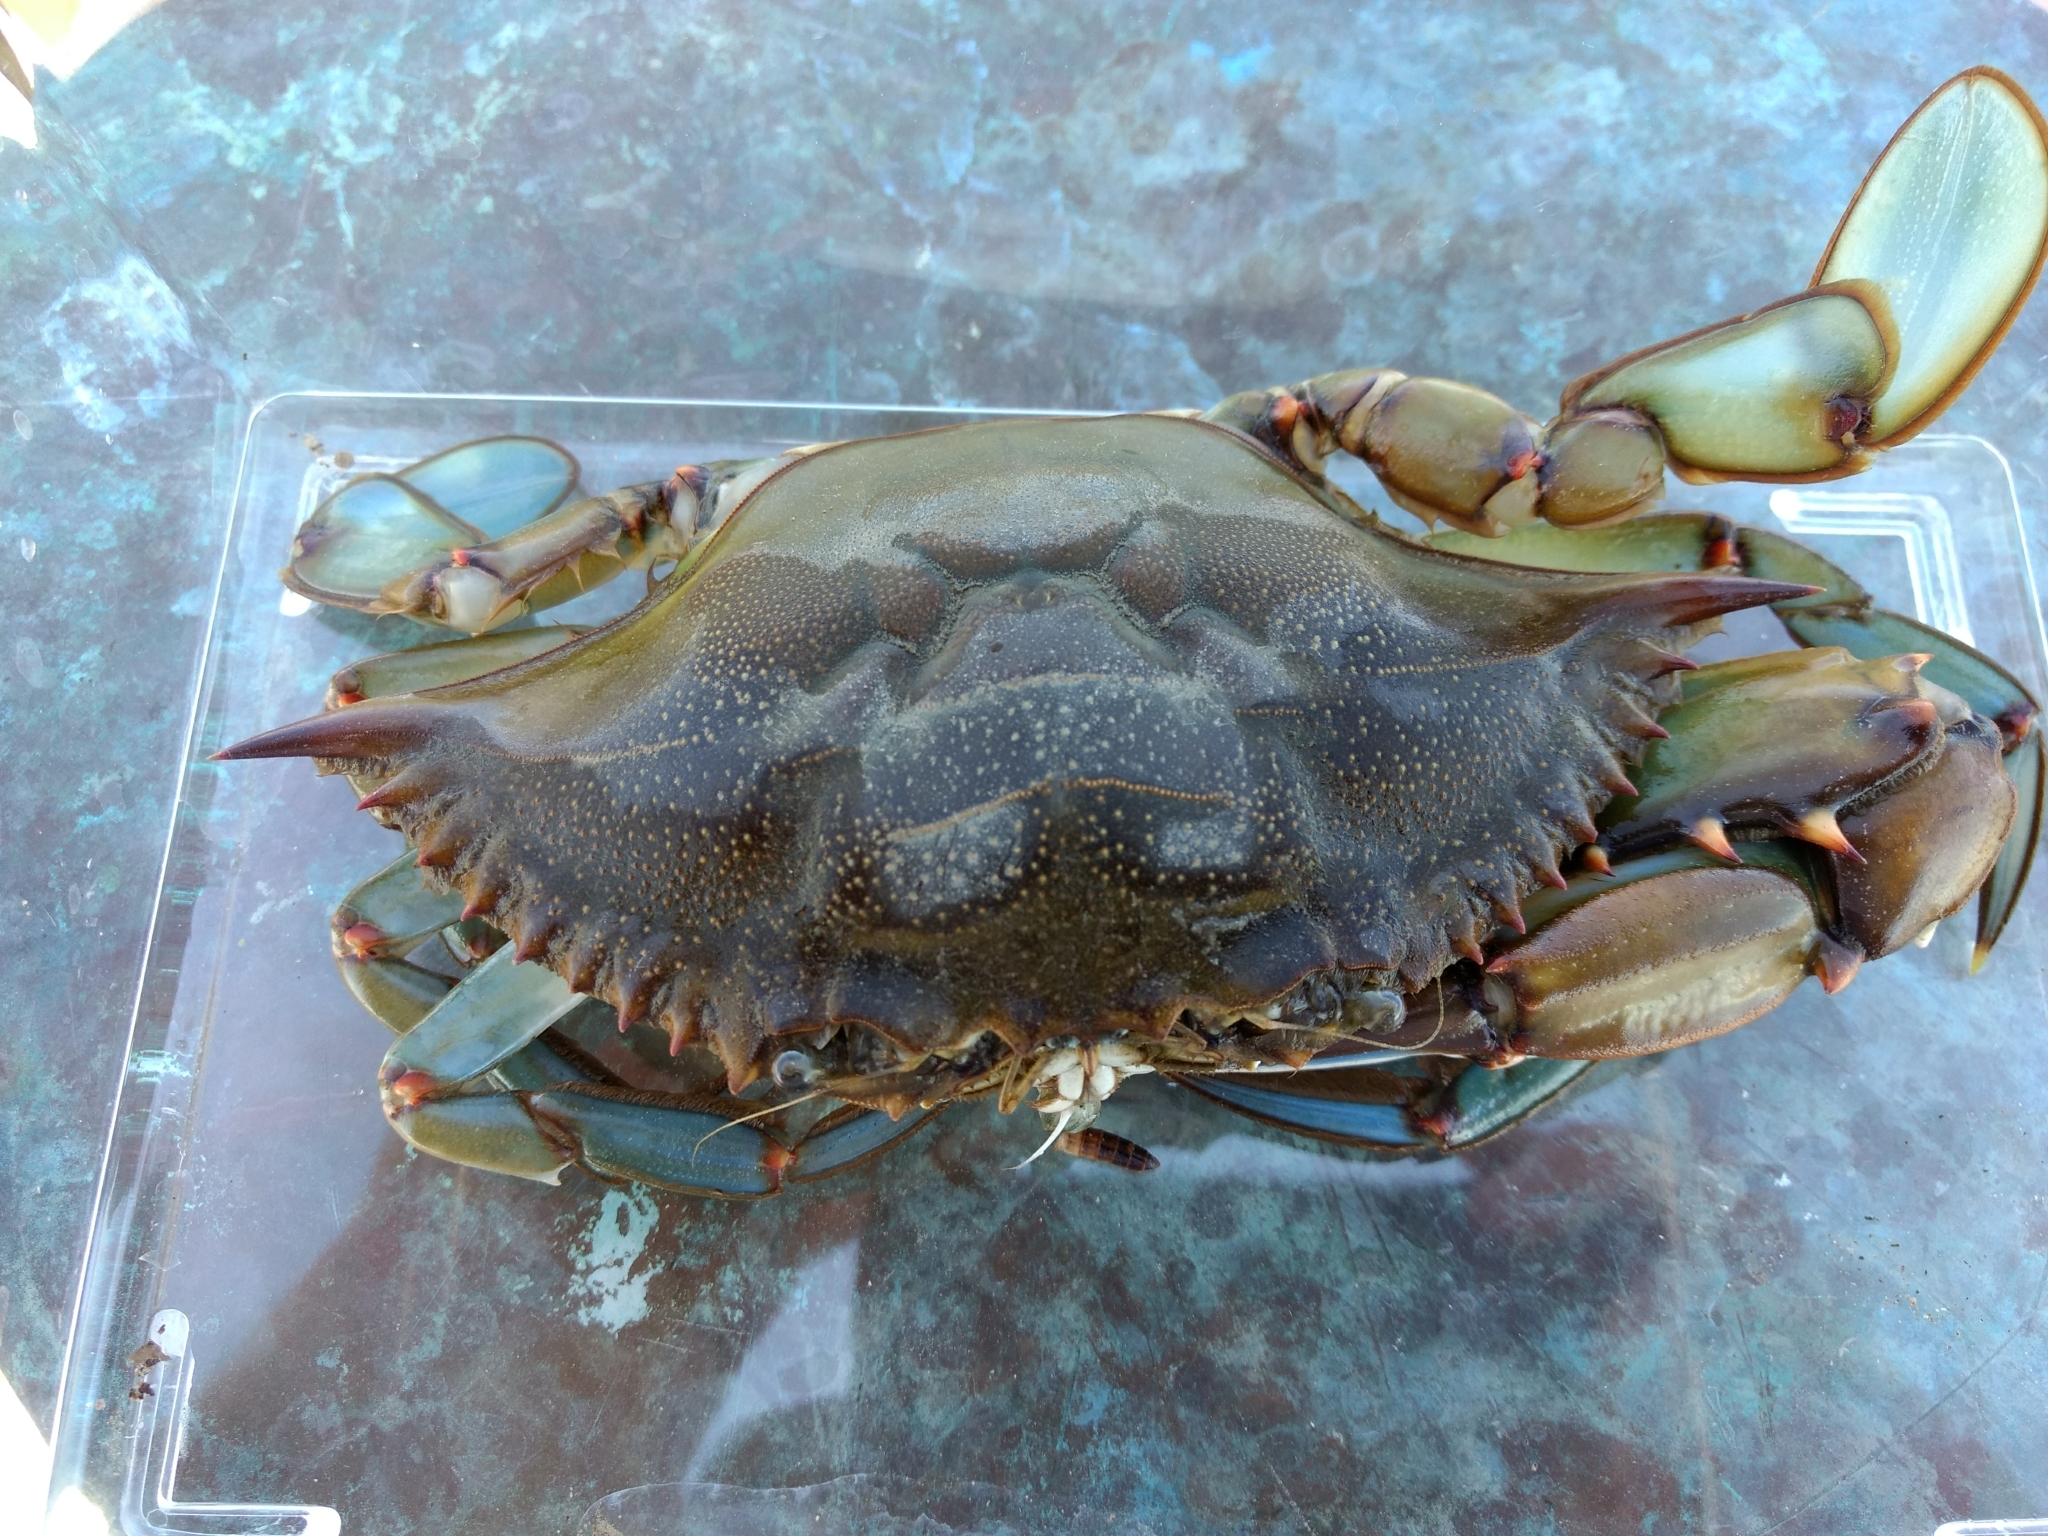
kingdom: Animalia
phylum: Arthropoda
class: Malacostraca
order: Decapoda
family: Portunidae
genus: Callinectes
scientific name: Callinectes sapidus
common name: Blue crab
